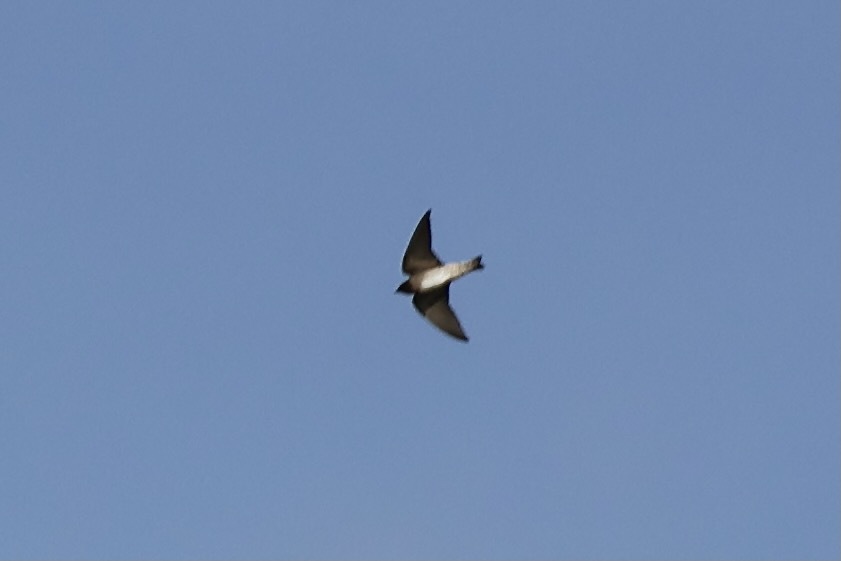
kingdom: Animalia
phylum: Chordata
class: Aves
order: Passeriformes
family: Hirundinidae
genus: Progne
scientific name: Progne chalybea
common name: Grey-breasted martin
